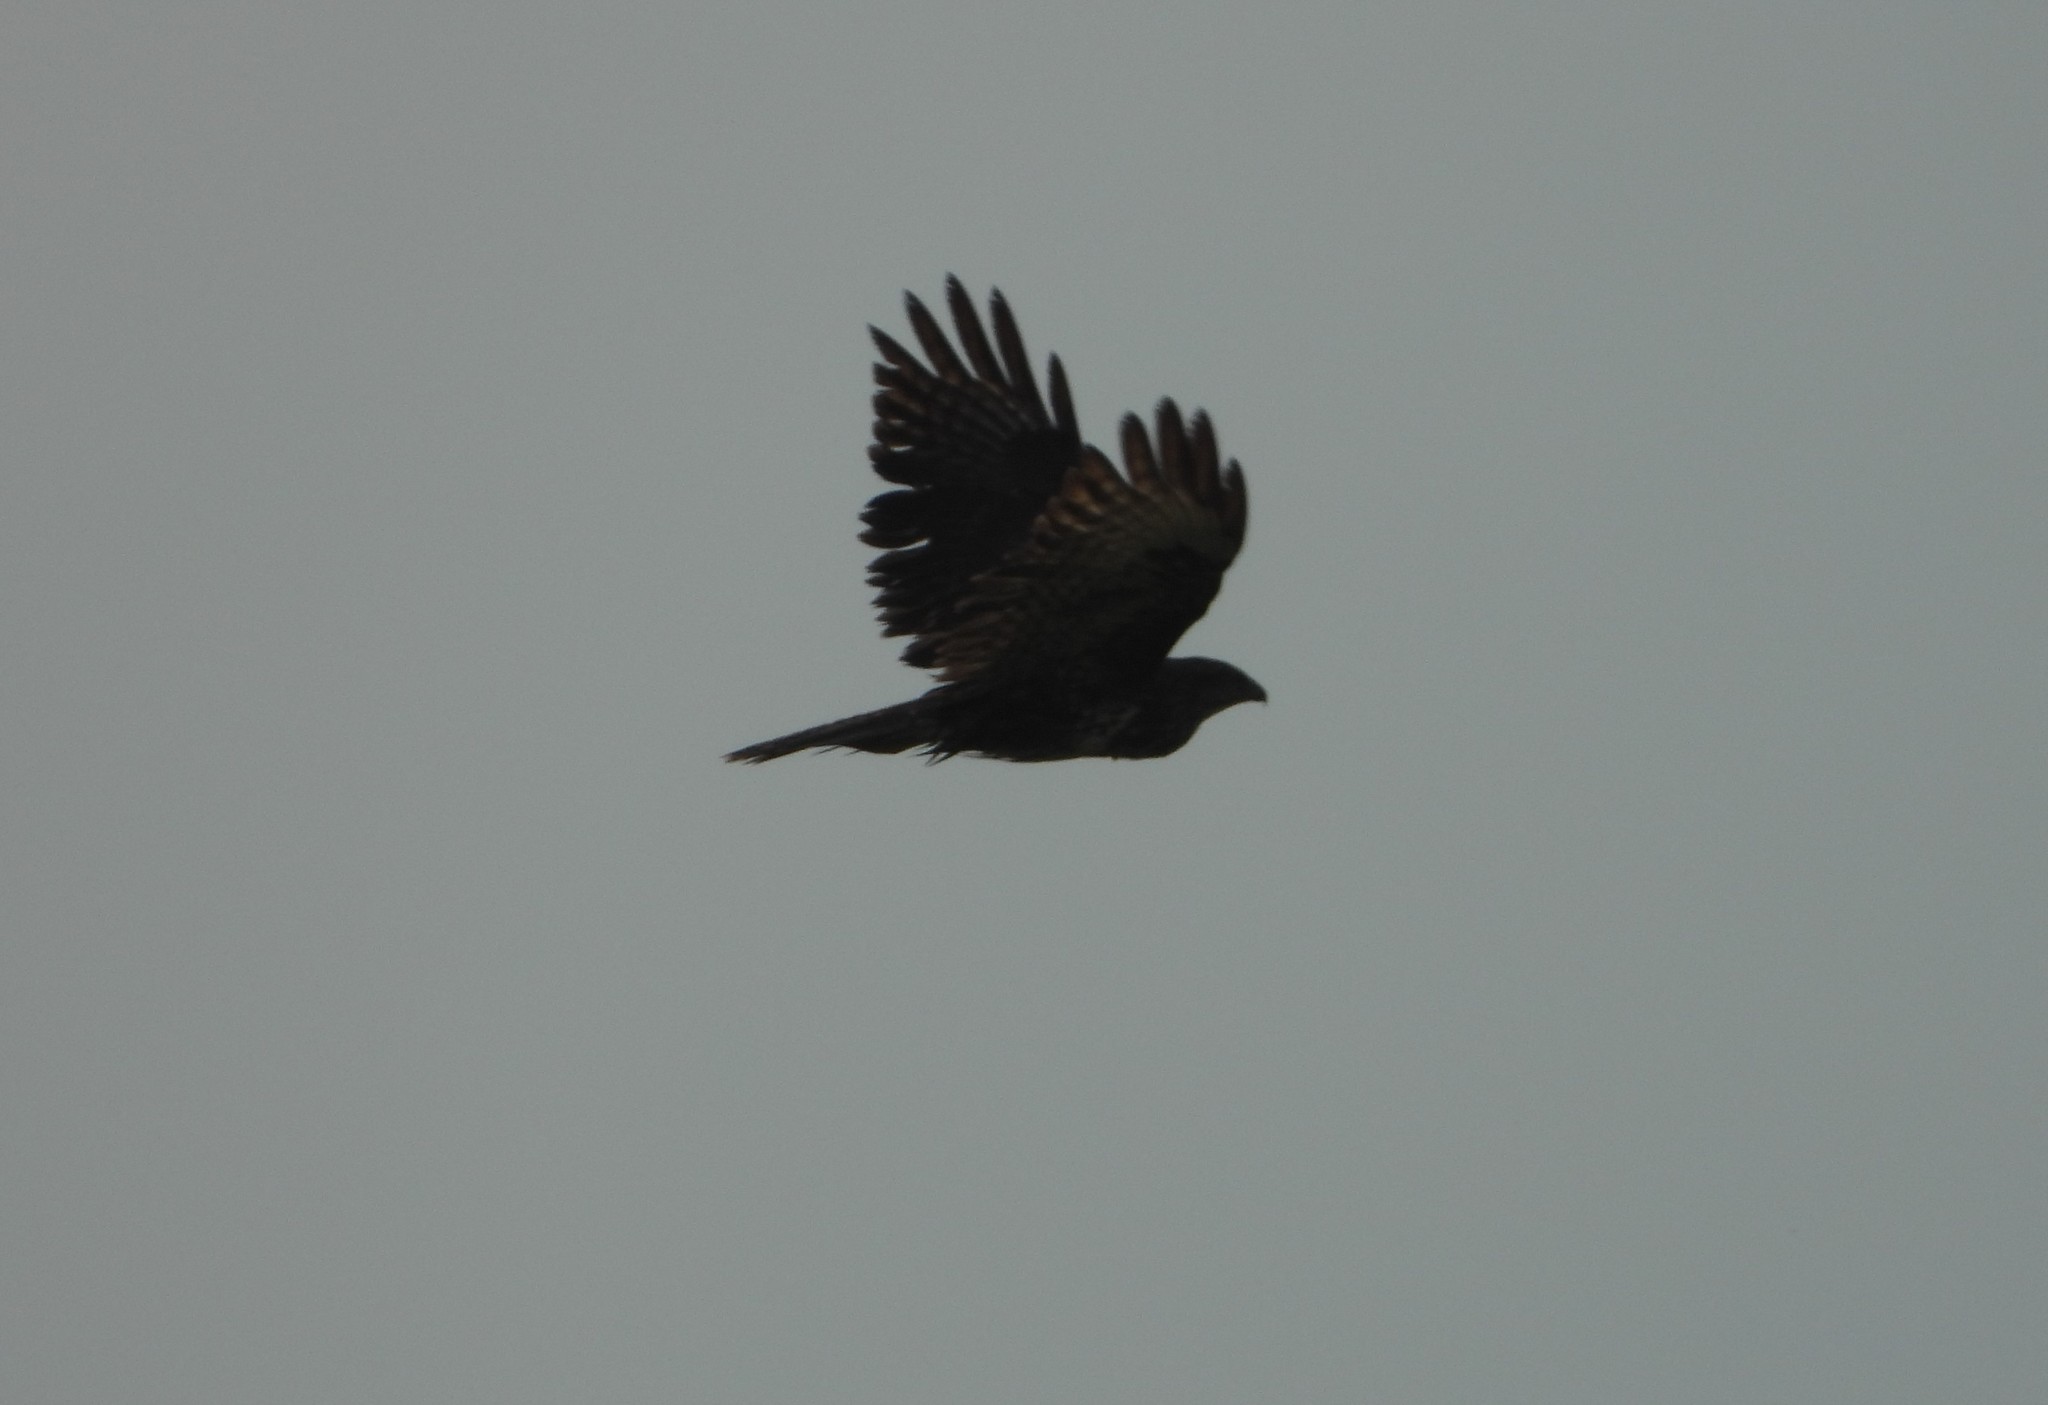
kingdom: Animalia
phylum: Chordata
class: Aves
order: Accipitriformes
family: Accipitridae
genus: Buteo
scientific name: Buteo buteo
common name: Common buzzard
